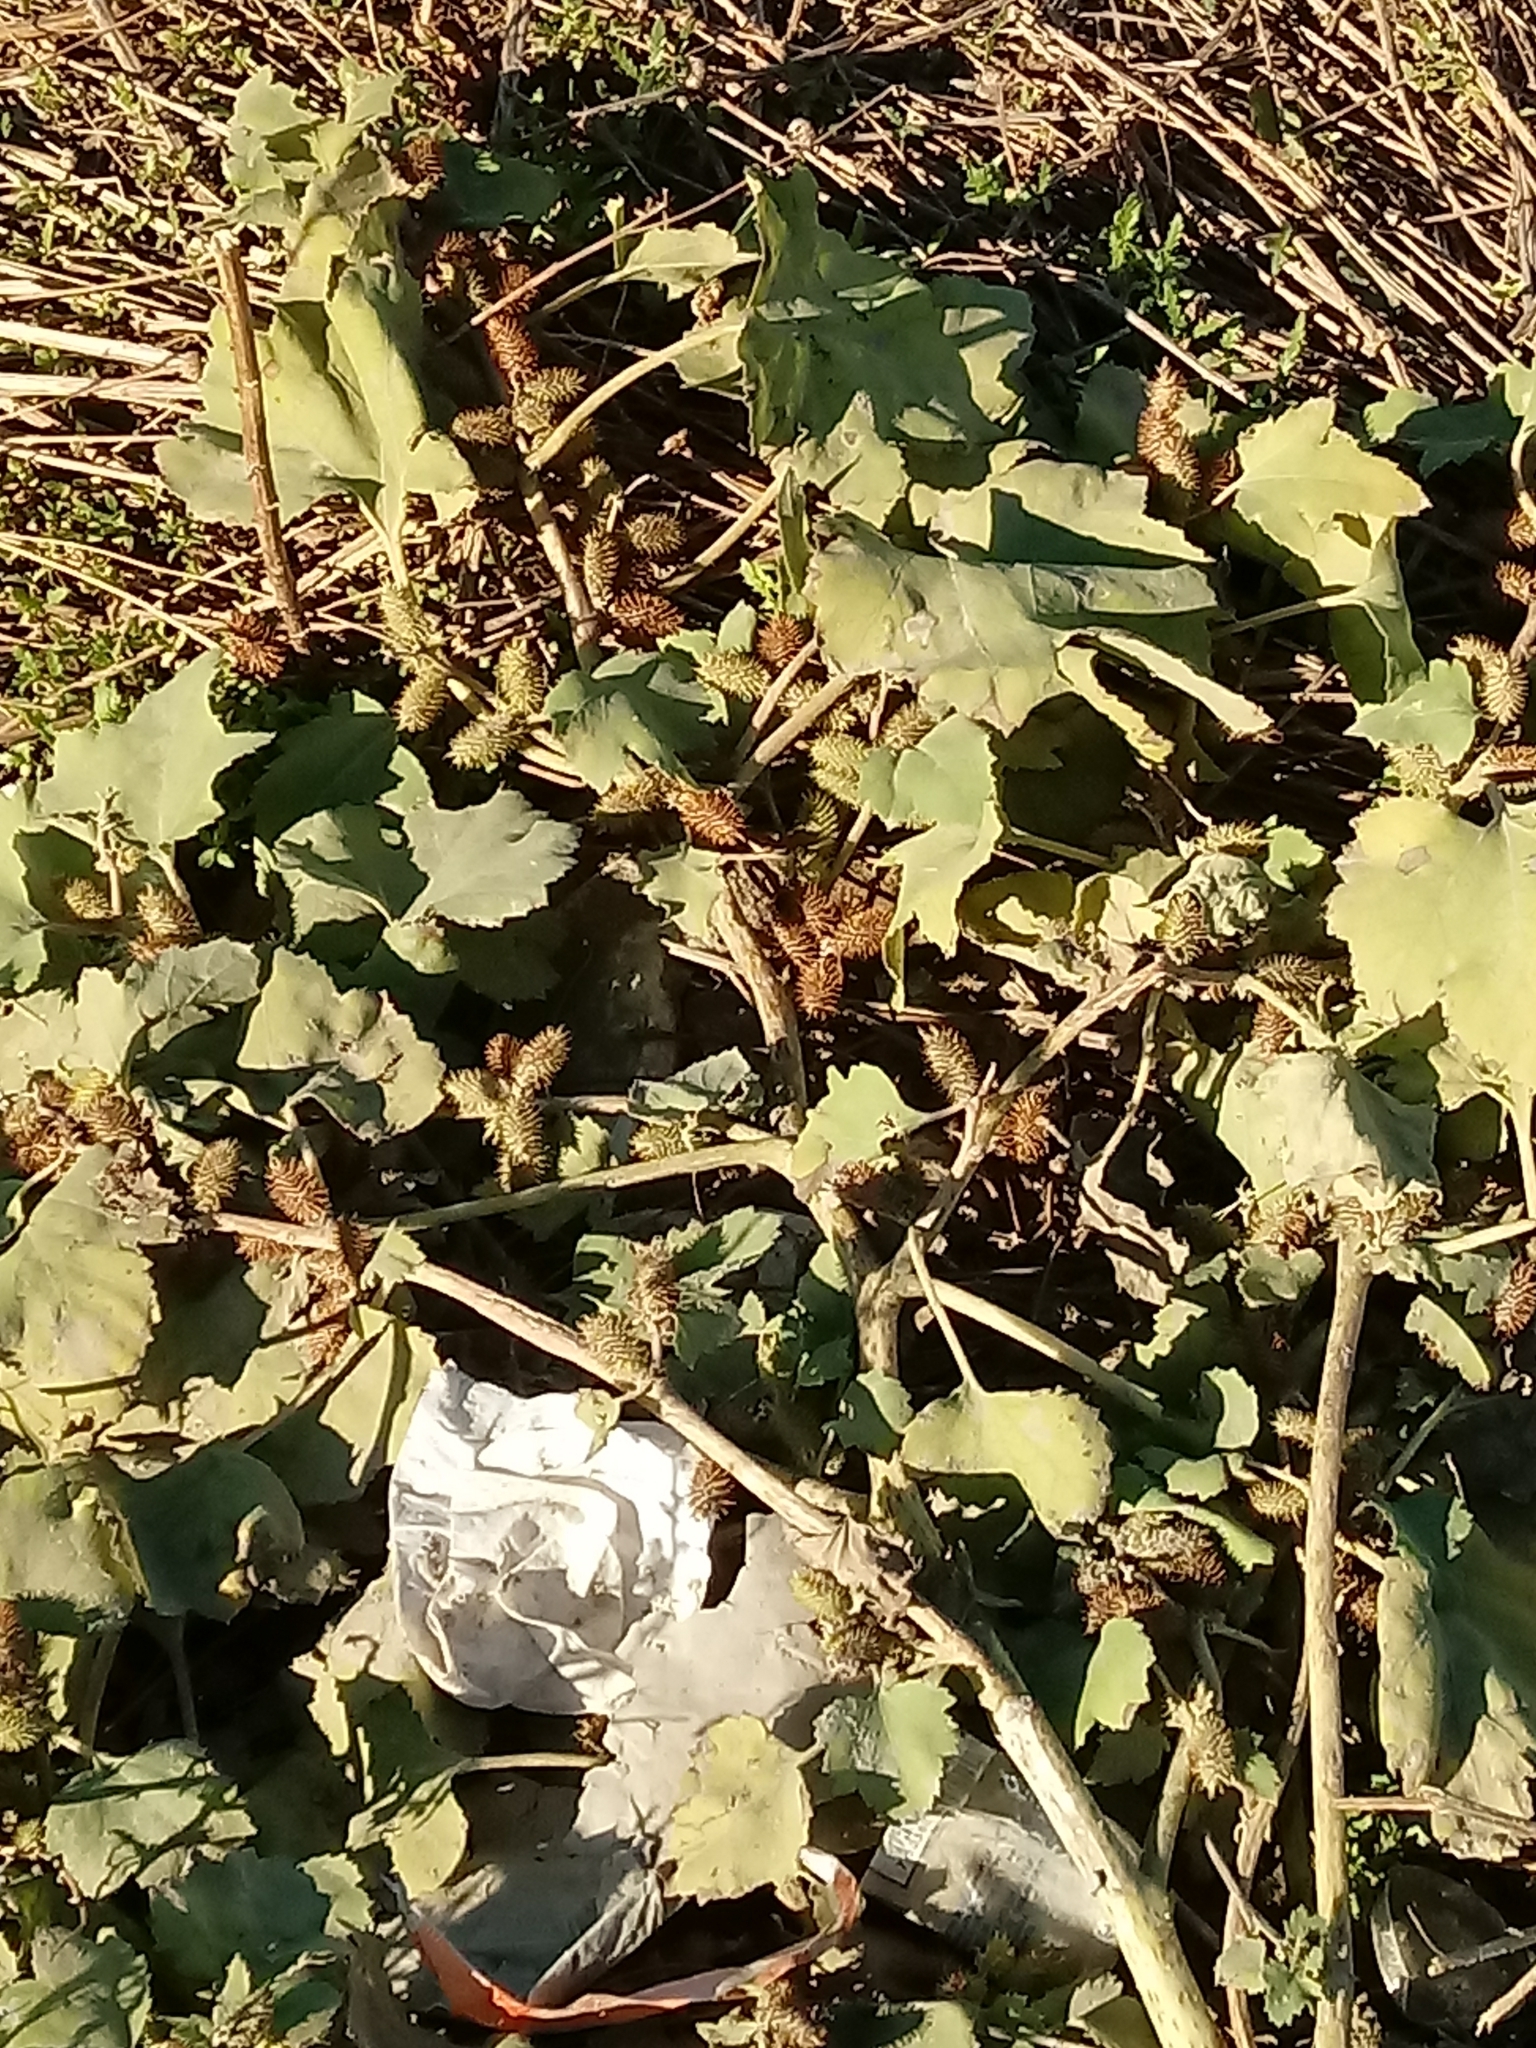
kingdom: Plantae
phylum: Tracheophyta
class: Magnoliopsida
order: Asterales
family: Asteraceae
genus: Xanthium
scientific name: Xanthium strumarium
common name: Rough cocklebur
